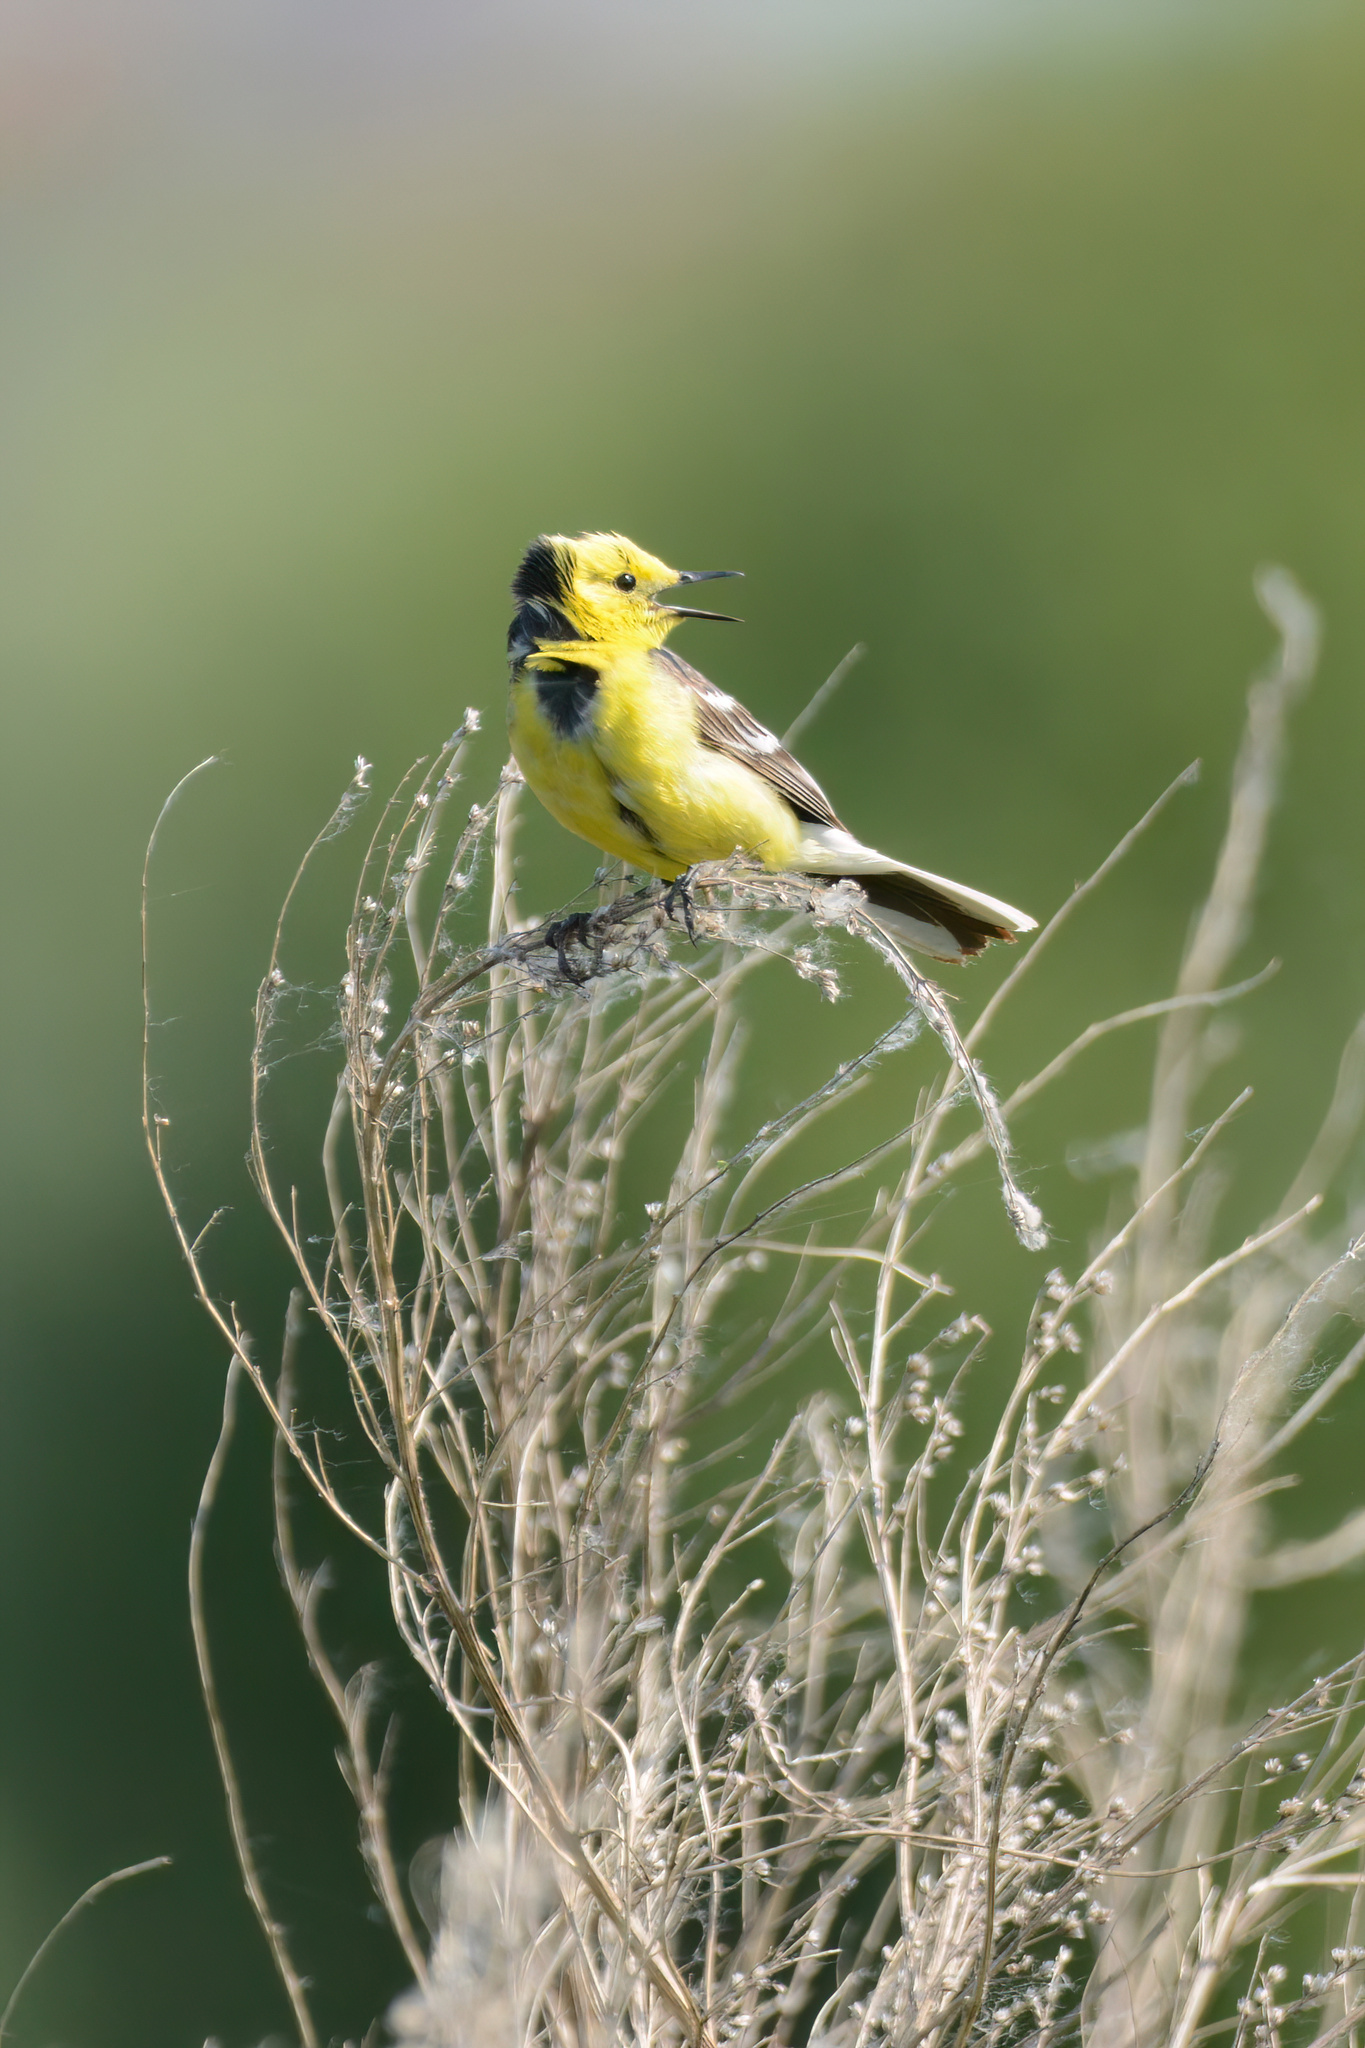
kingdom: Animalia
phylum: Chordata
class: Aves
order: Passeriformes
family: Motacillidae
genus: Motacilla
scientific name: Motacilla citreola
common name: Citrine wagtail
